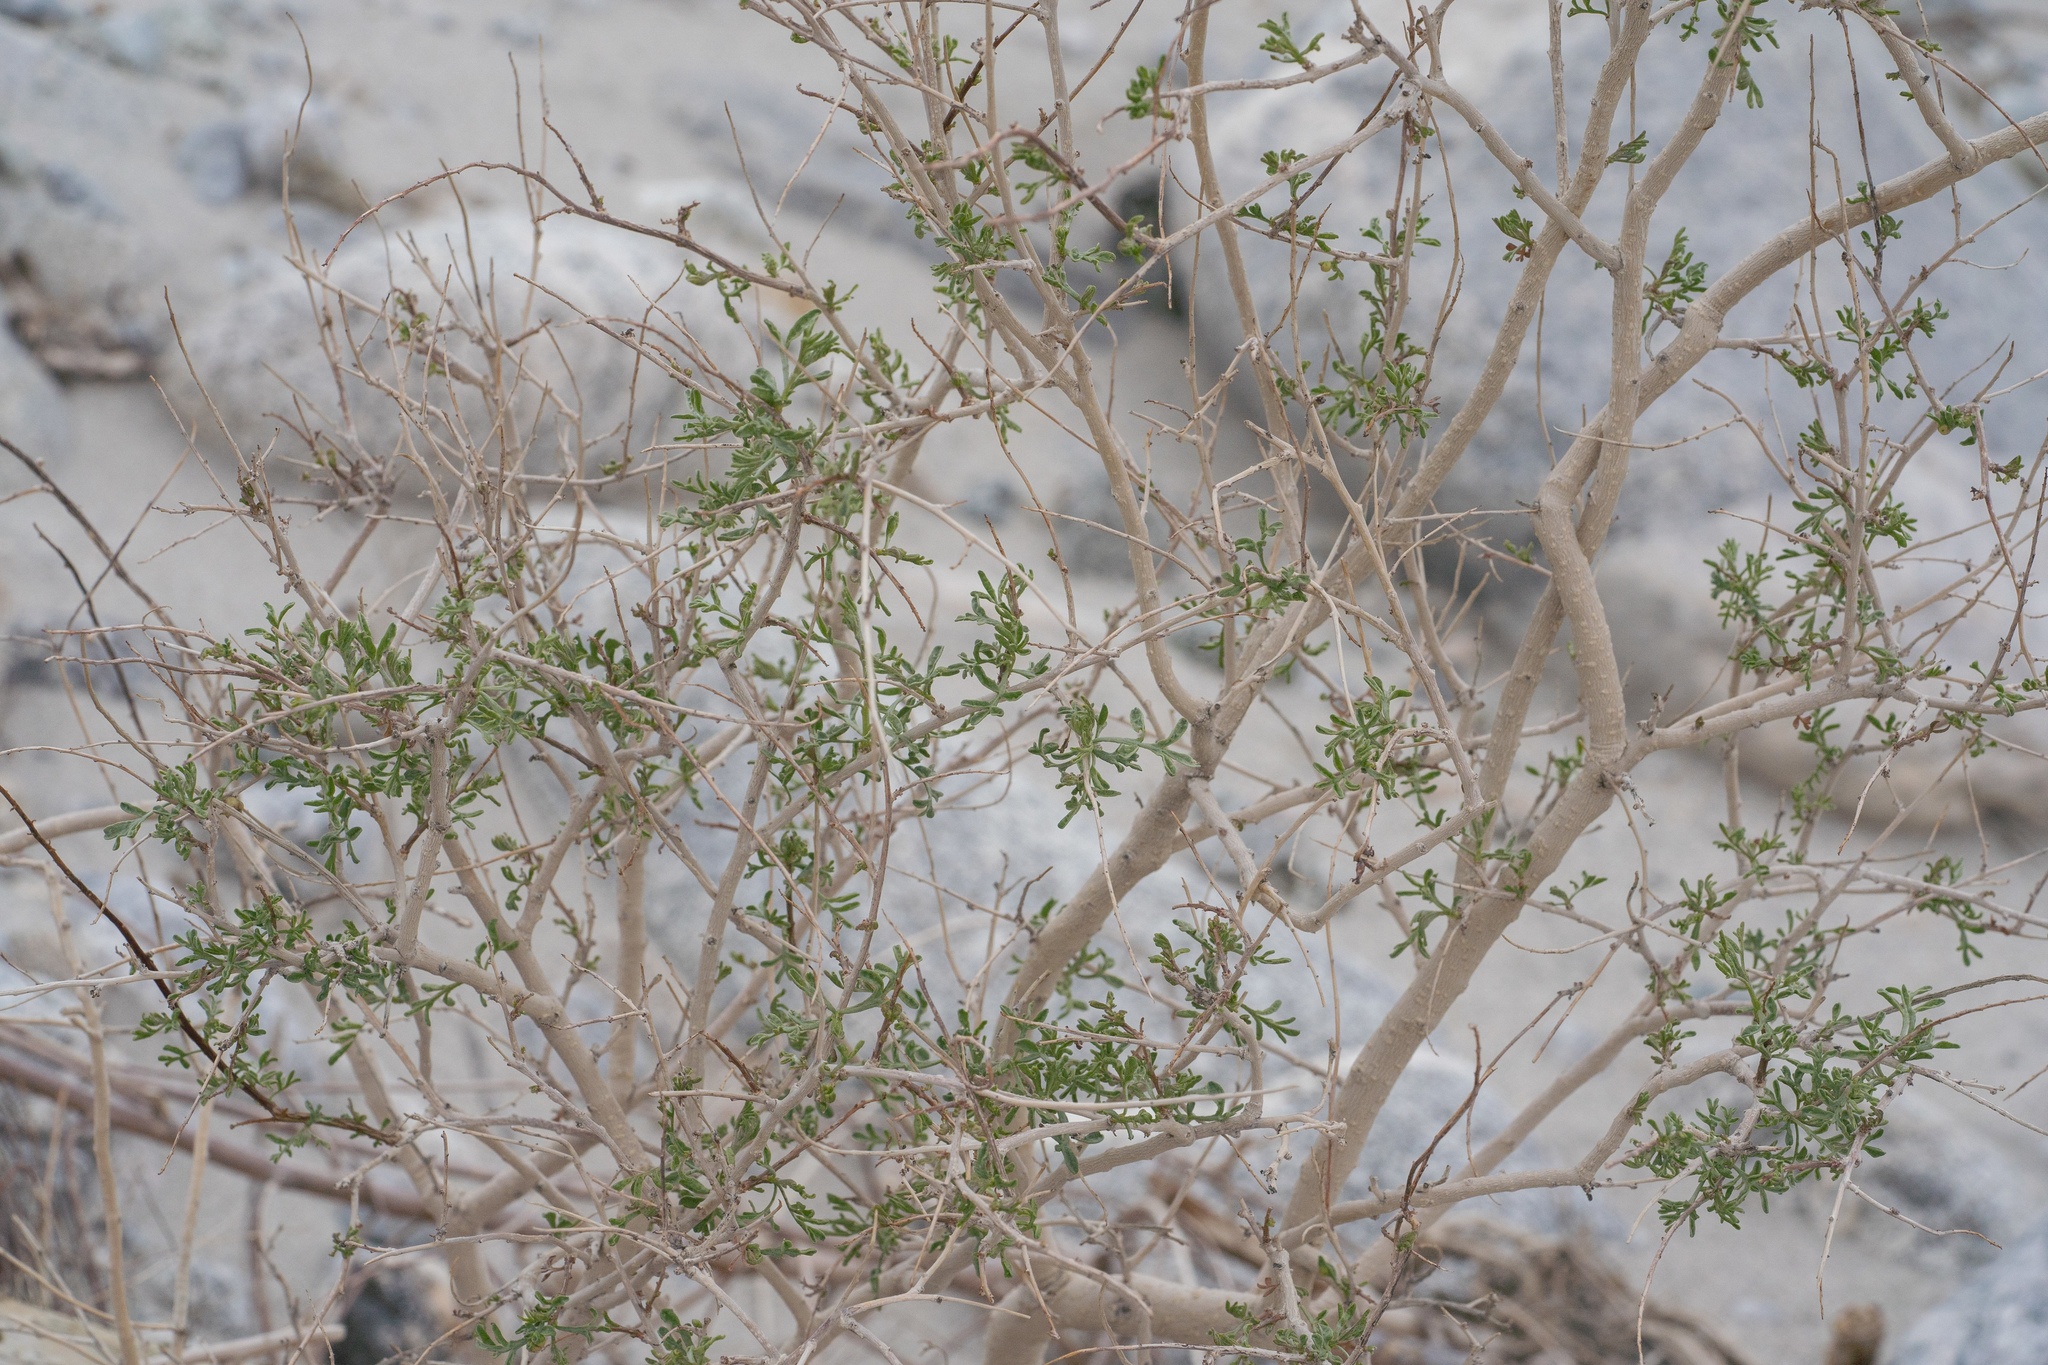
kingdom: Plantae
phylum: Tracheophyta
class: Magnoliopsida
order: Fabales
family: Fabaceae
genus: Psorothamnus
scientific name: Psorothamnus arborescens
